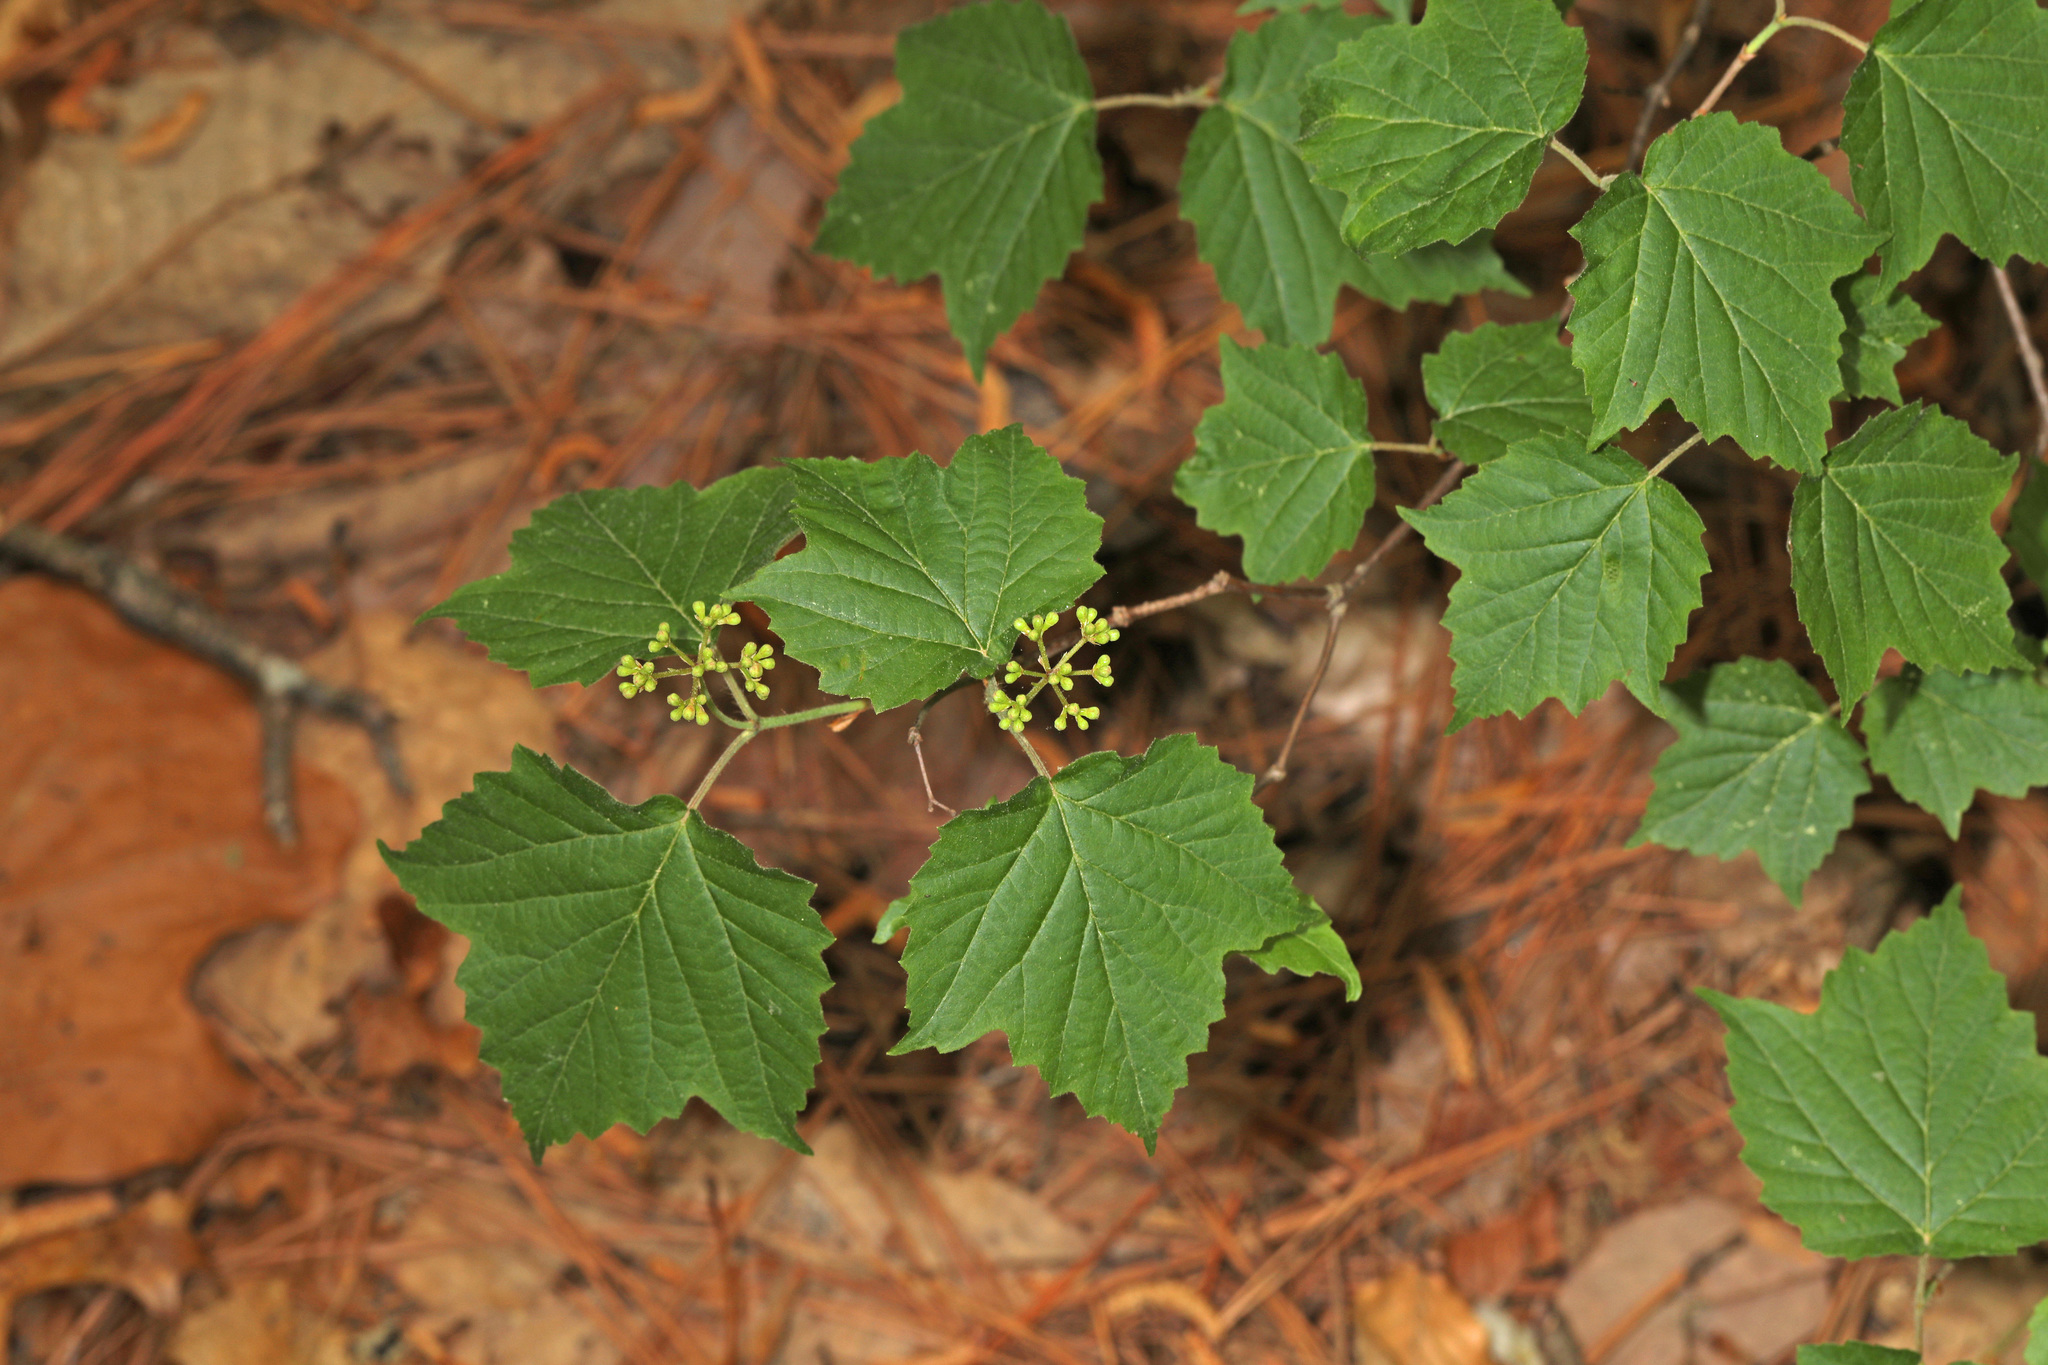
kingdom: Plantae
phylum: Tracheophyta
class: Magnoliopsida
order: Dipsacales
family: Viburnaceae
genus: Viburnum
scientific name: Viburnum acerifolium
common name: Dockmackie
